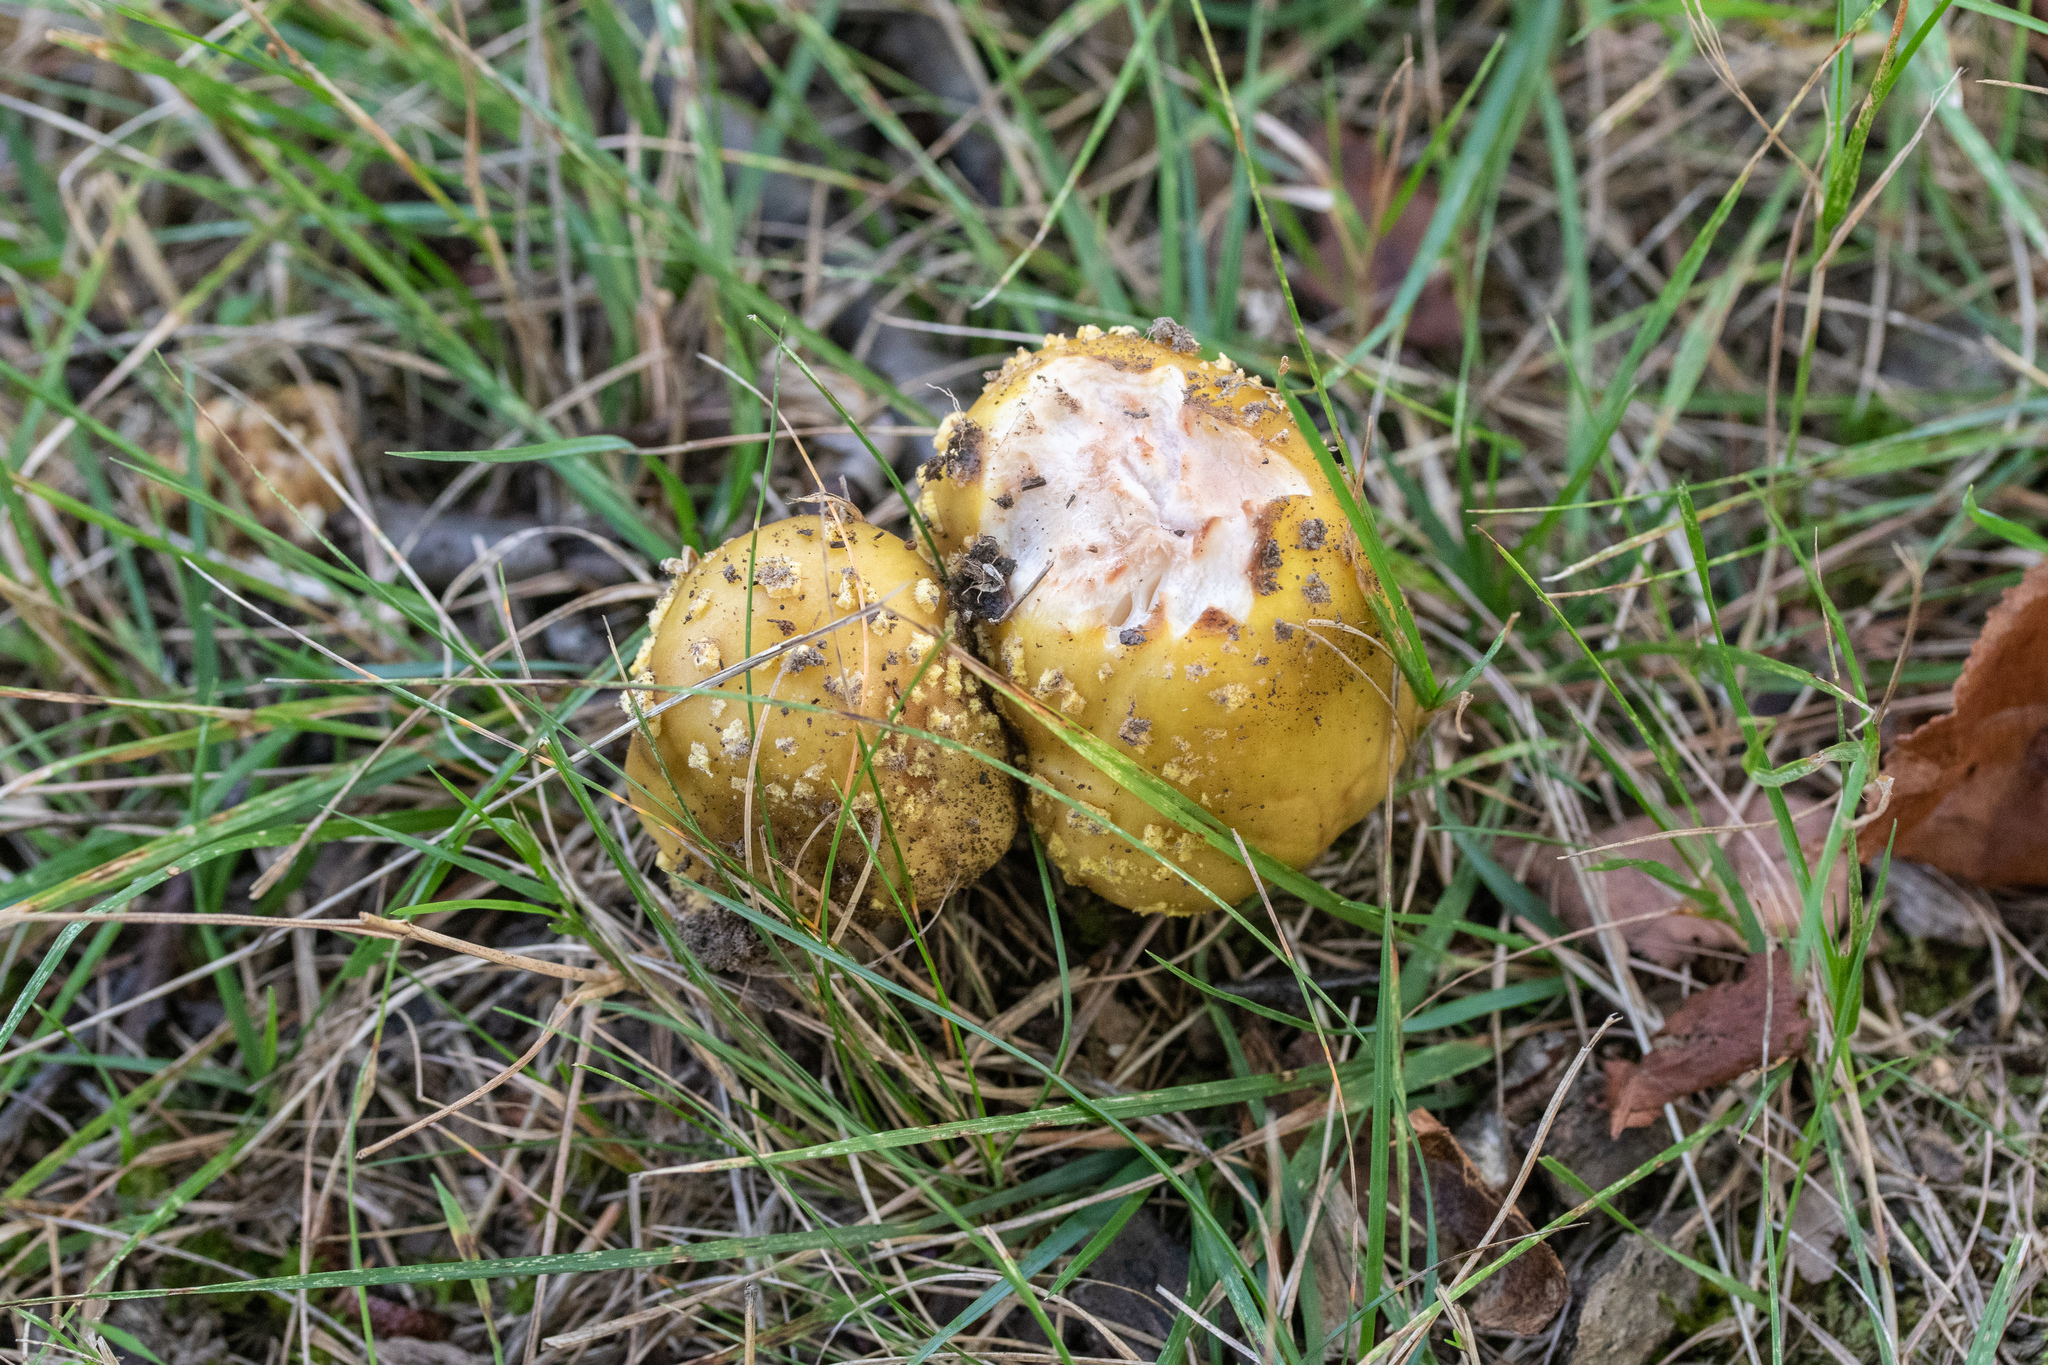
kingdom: Fungi
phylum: Basidiomycota
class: Agaricomycetes
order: Agaricales
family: Amanitaceae
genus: Amanita
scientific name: Amanita flavorubens
